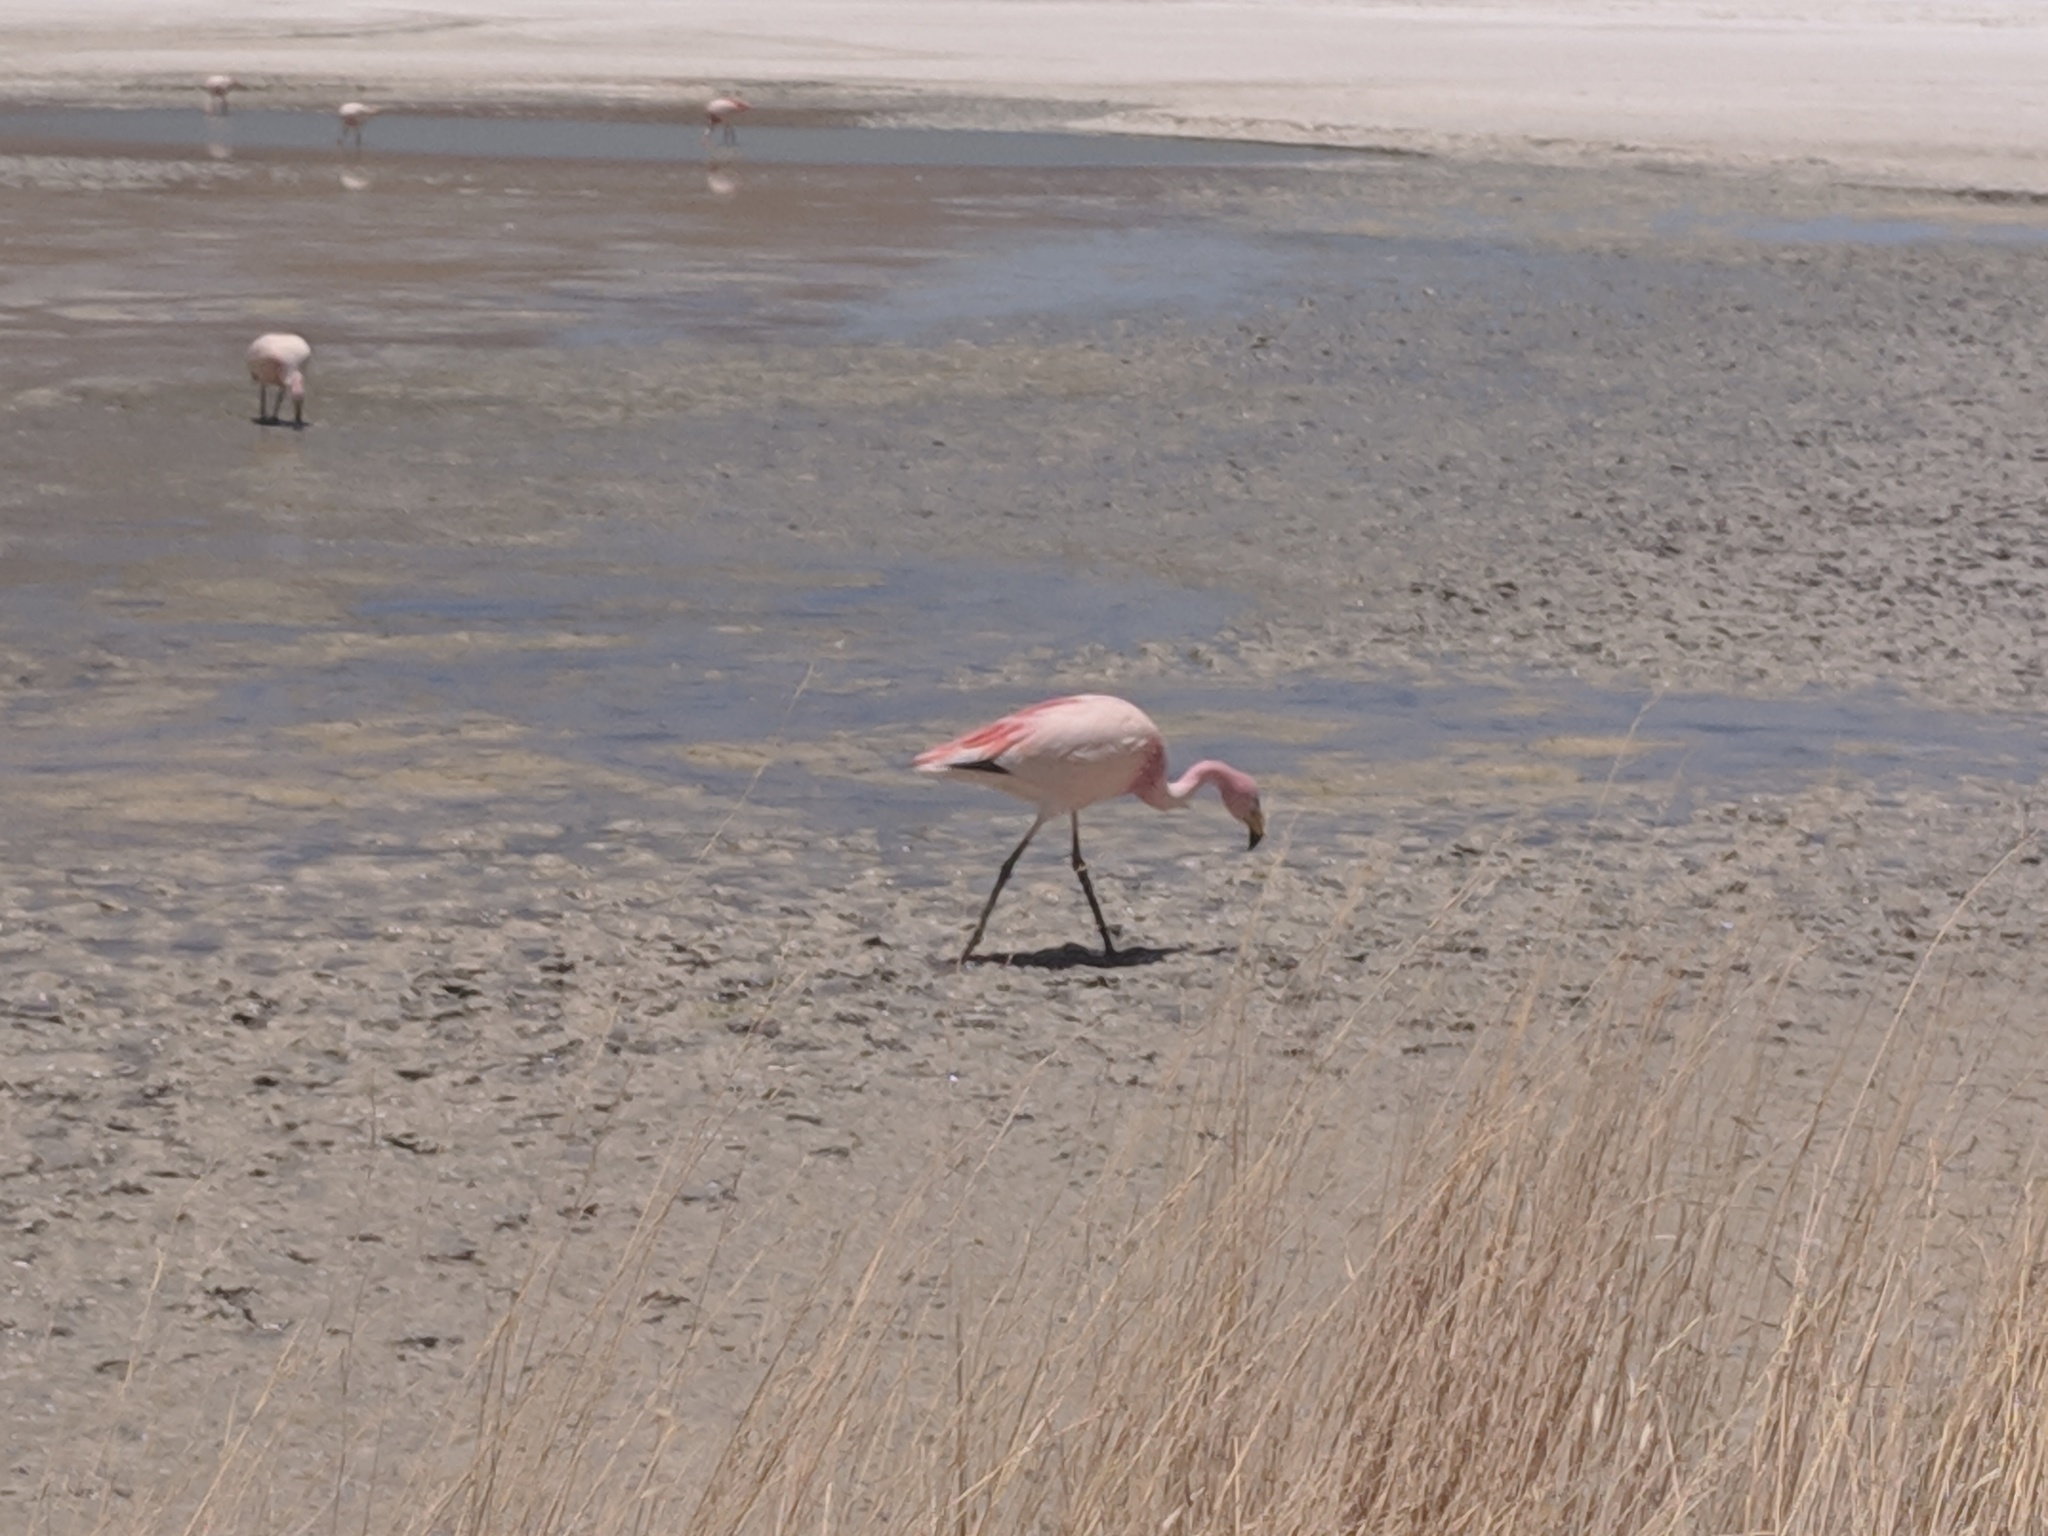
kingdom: Animalia
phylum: Chordata
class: Aves
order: Phoenicopteriformes
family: Phoenicopteridae
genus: Phoenicoparrus
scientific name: Phoenicoparrus jamesi
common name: James's flamingo
